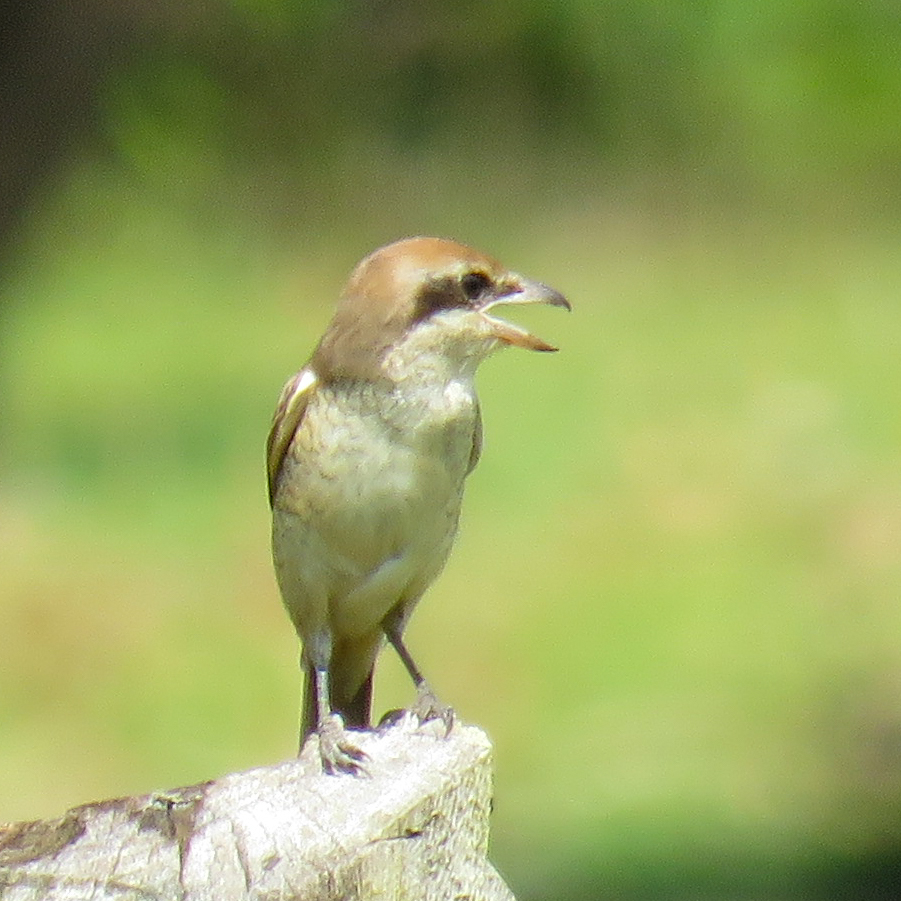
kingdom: Animalia
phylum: Chordata
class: Aves
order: Passeriformes
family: Laniidae
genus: Lanius
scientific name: Lanius cristatus
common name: Brown shrike
